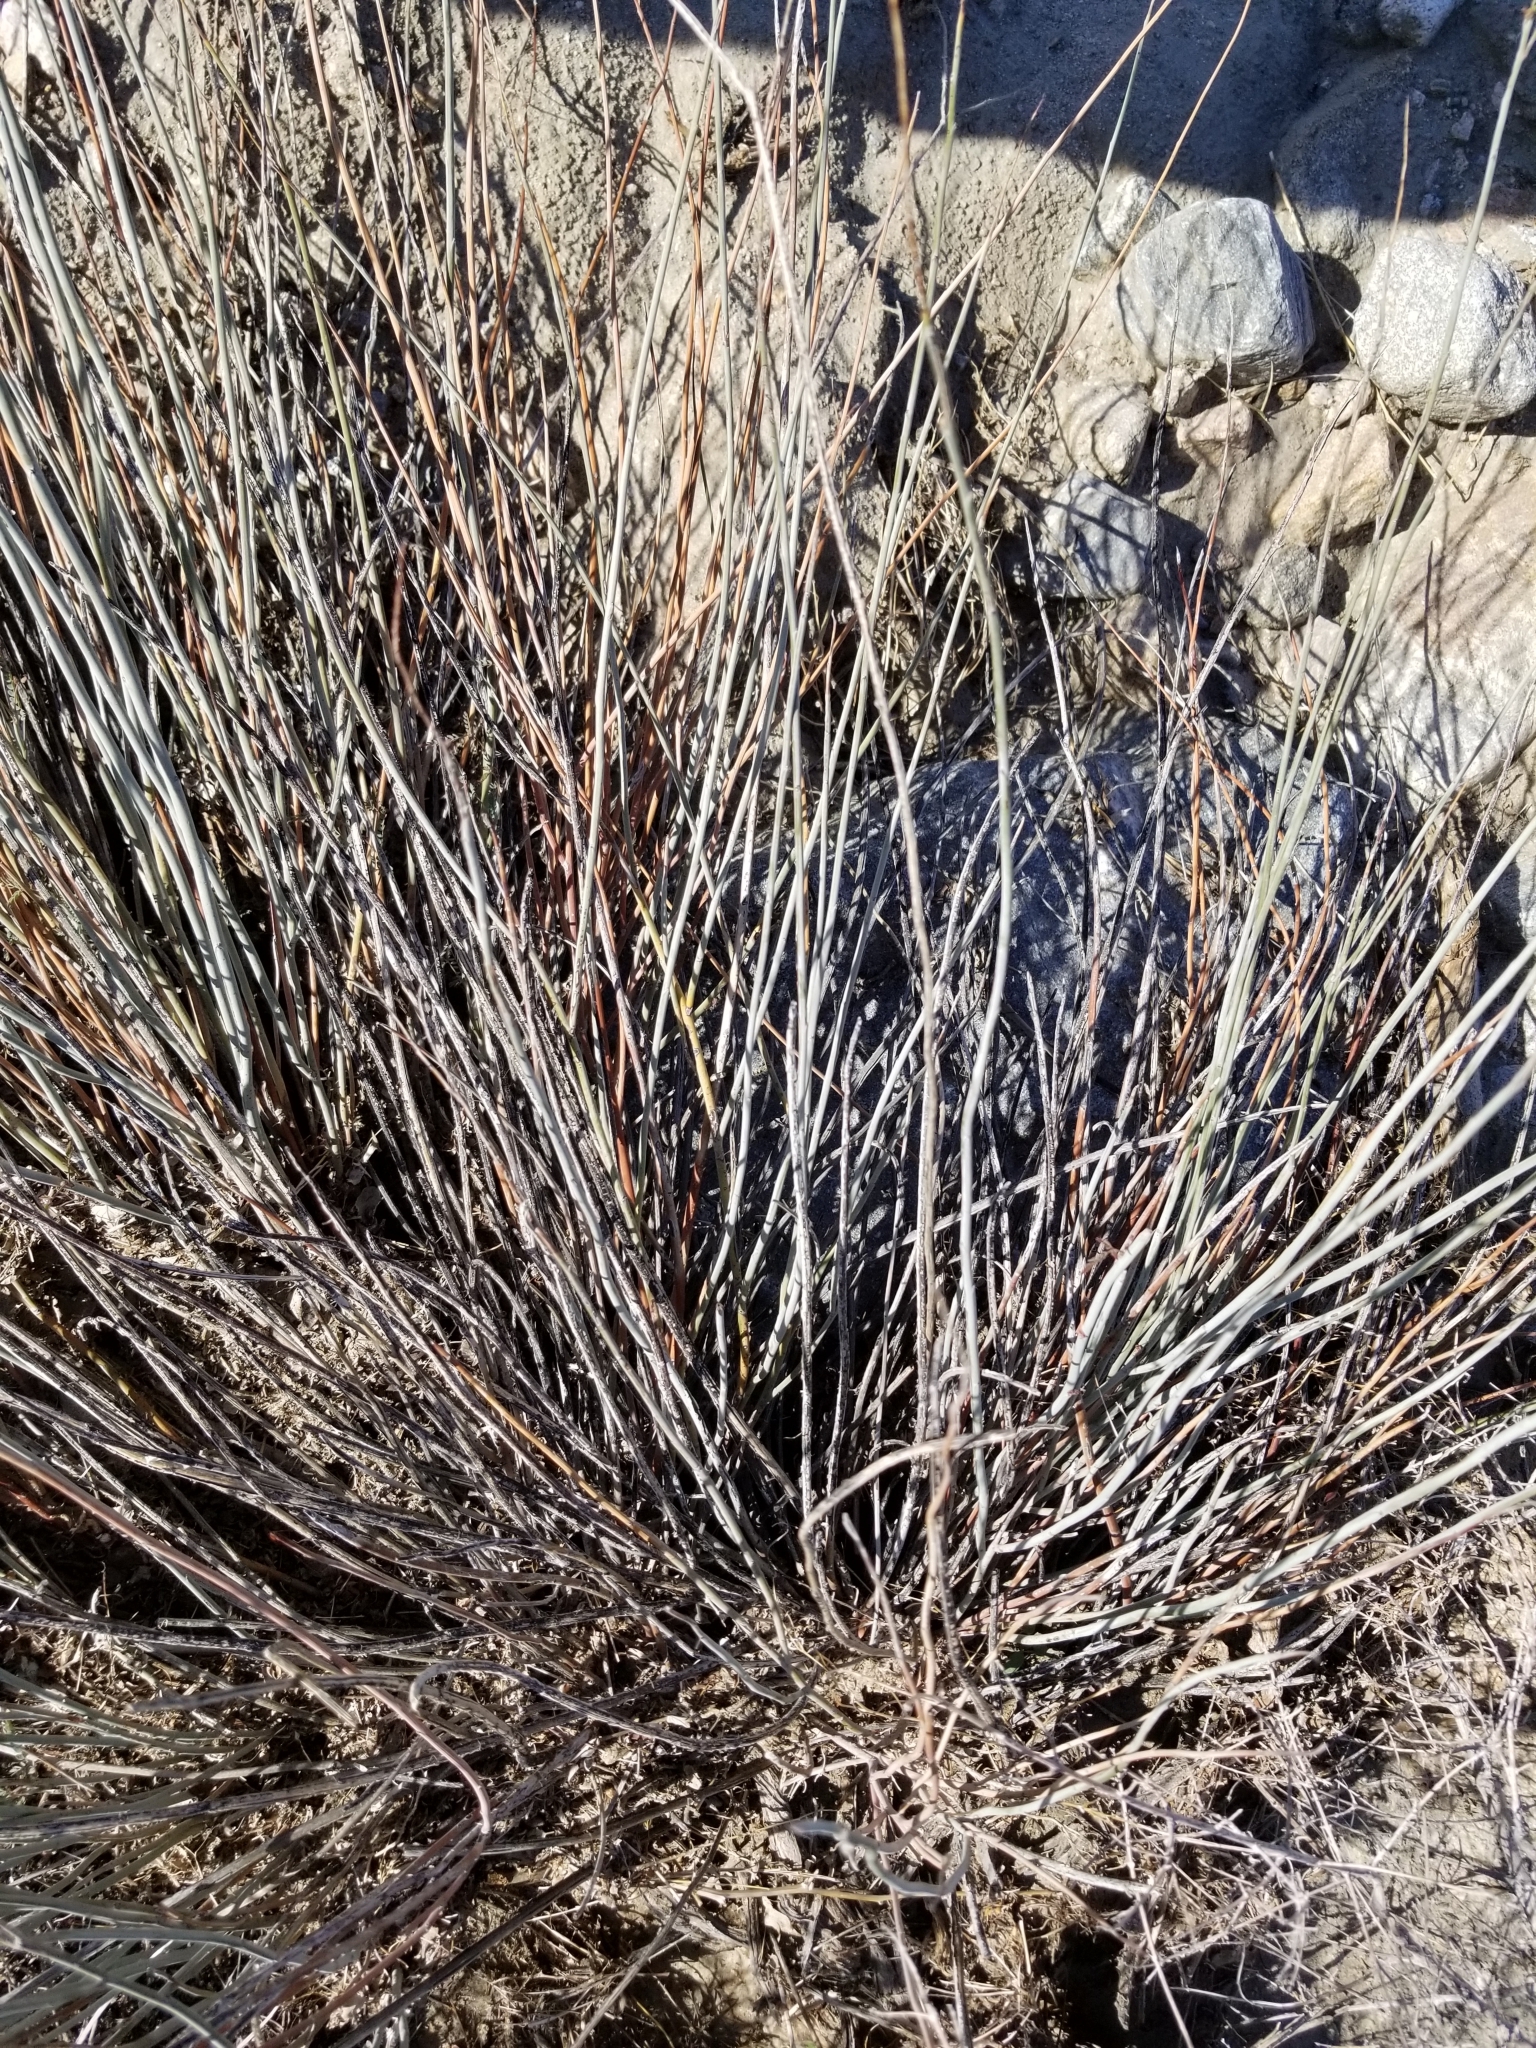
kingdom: Plantae
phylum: Tracheophyta
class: Magnoliopsida
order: Fabales
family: Fabaceae
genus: Hoffmannseggia
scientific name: Hoffmannseggia microphylla
